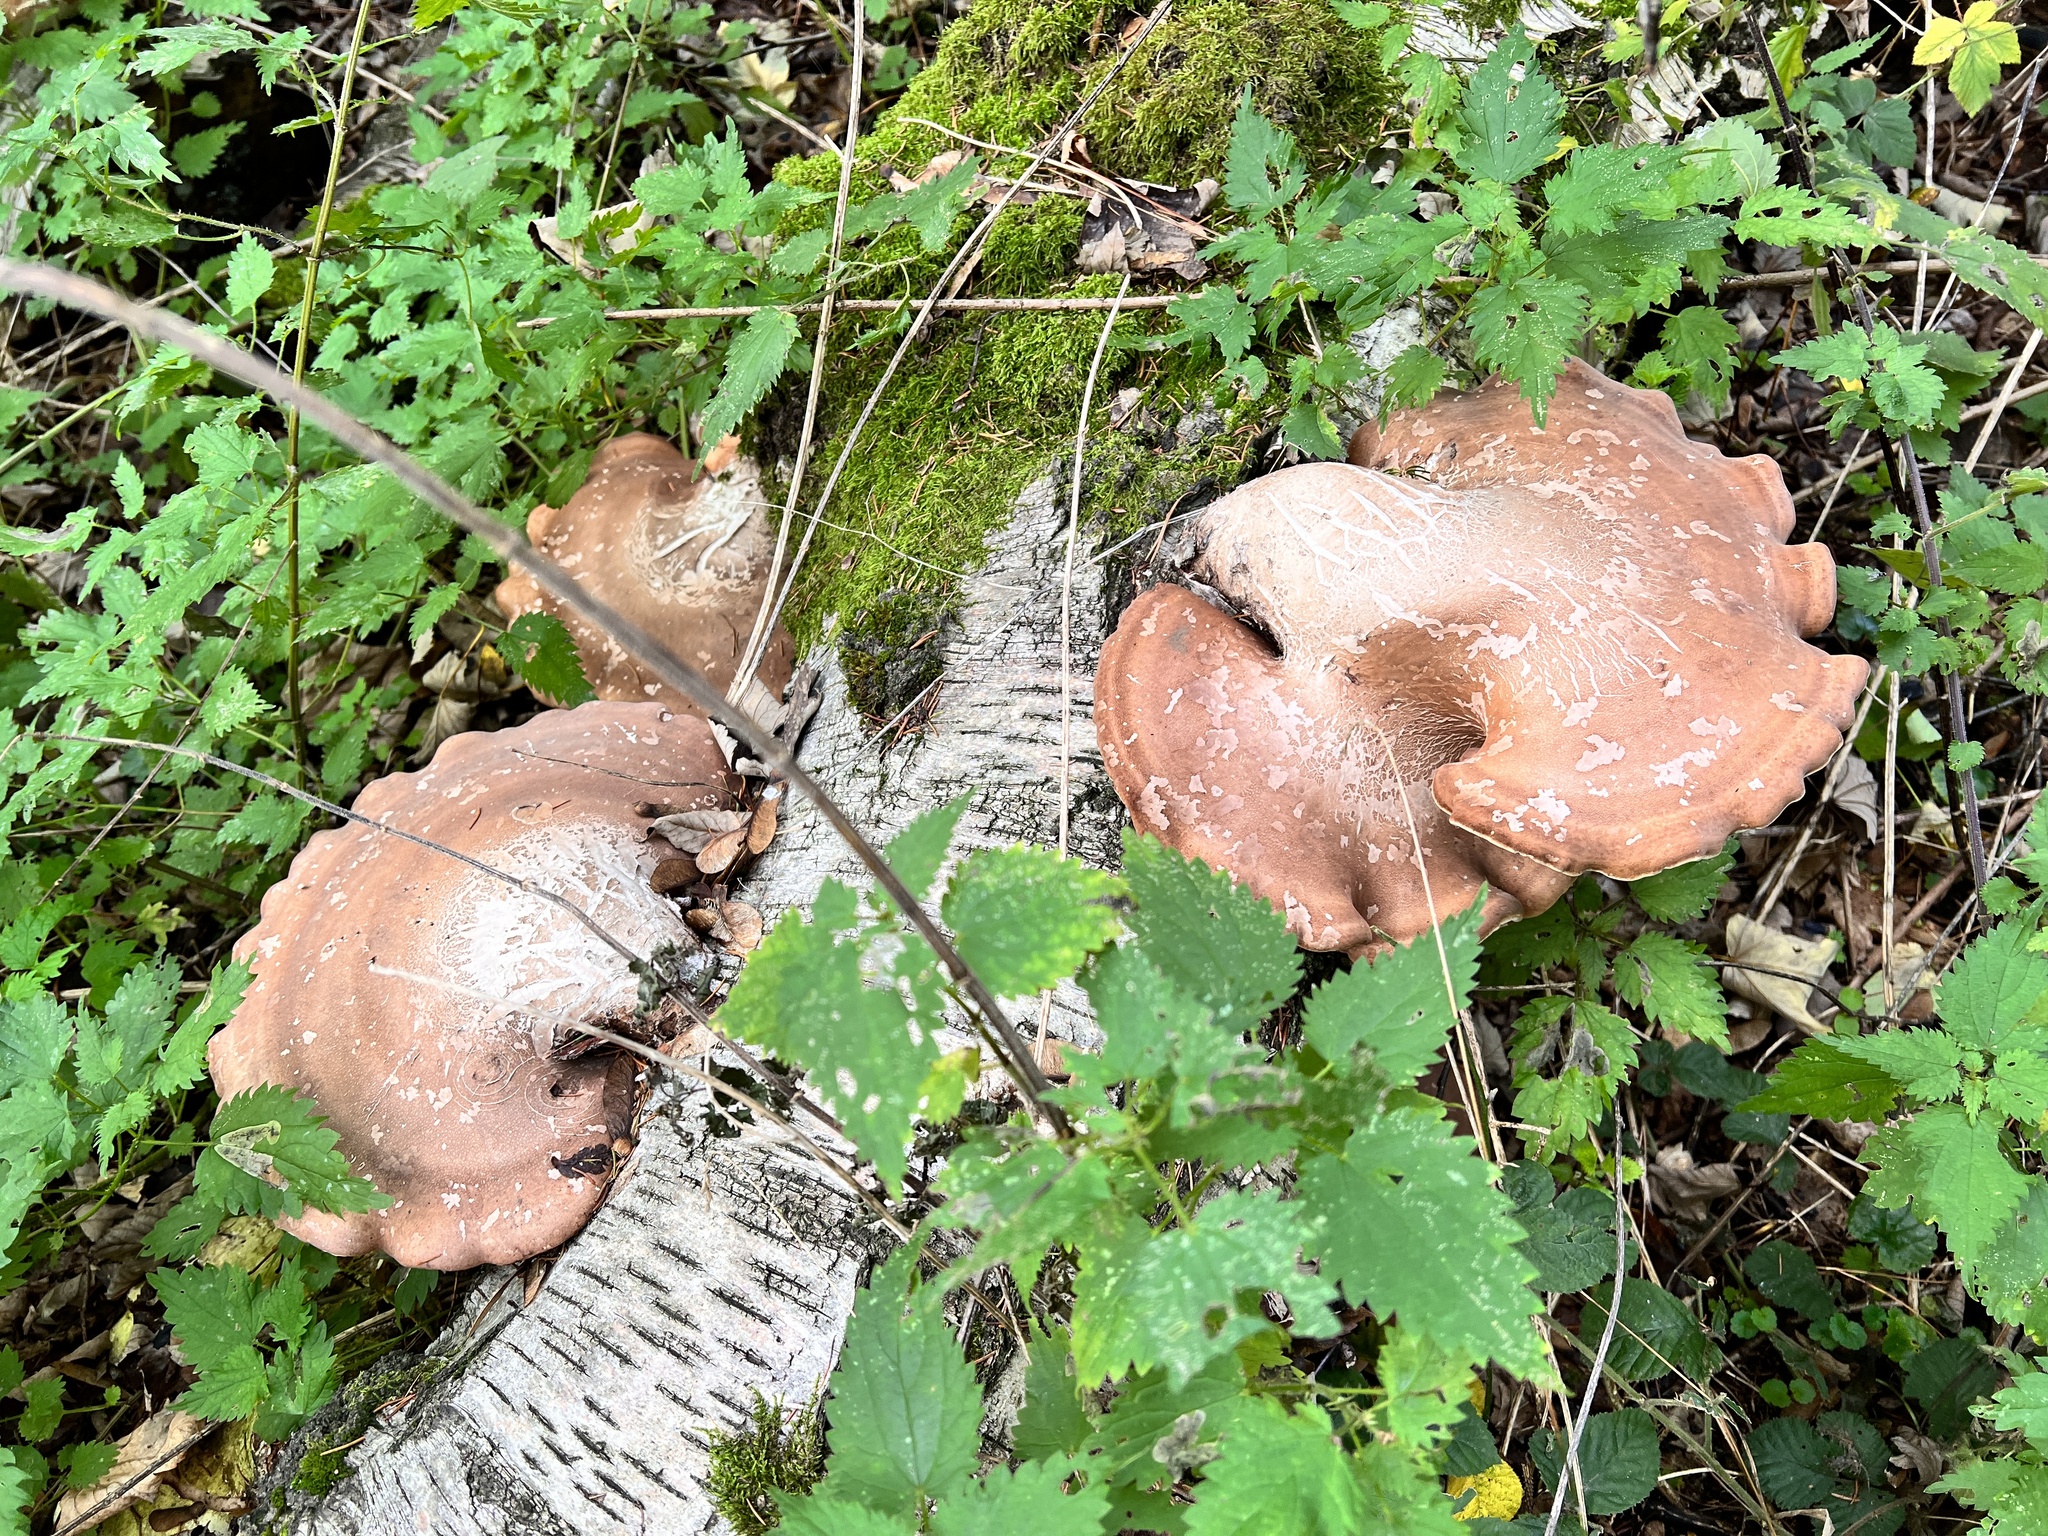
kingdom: Fungi
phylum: Basidiomycota
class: Agaricomycetes
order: Polyporales
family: Fomitopsidaceae
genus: Fomitopsis
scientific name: Fomitopsis betulina
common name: Birch polypore
